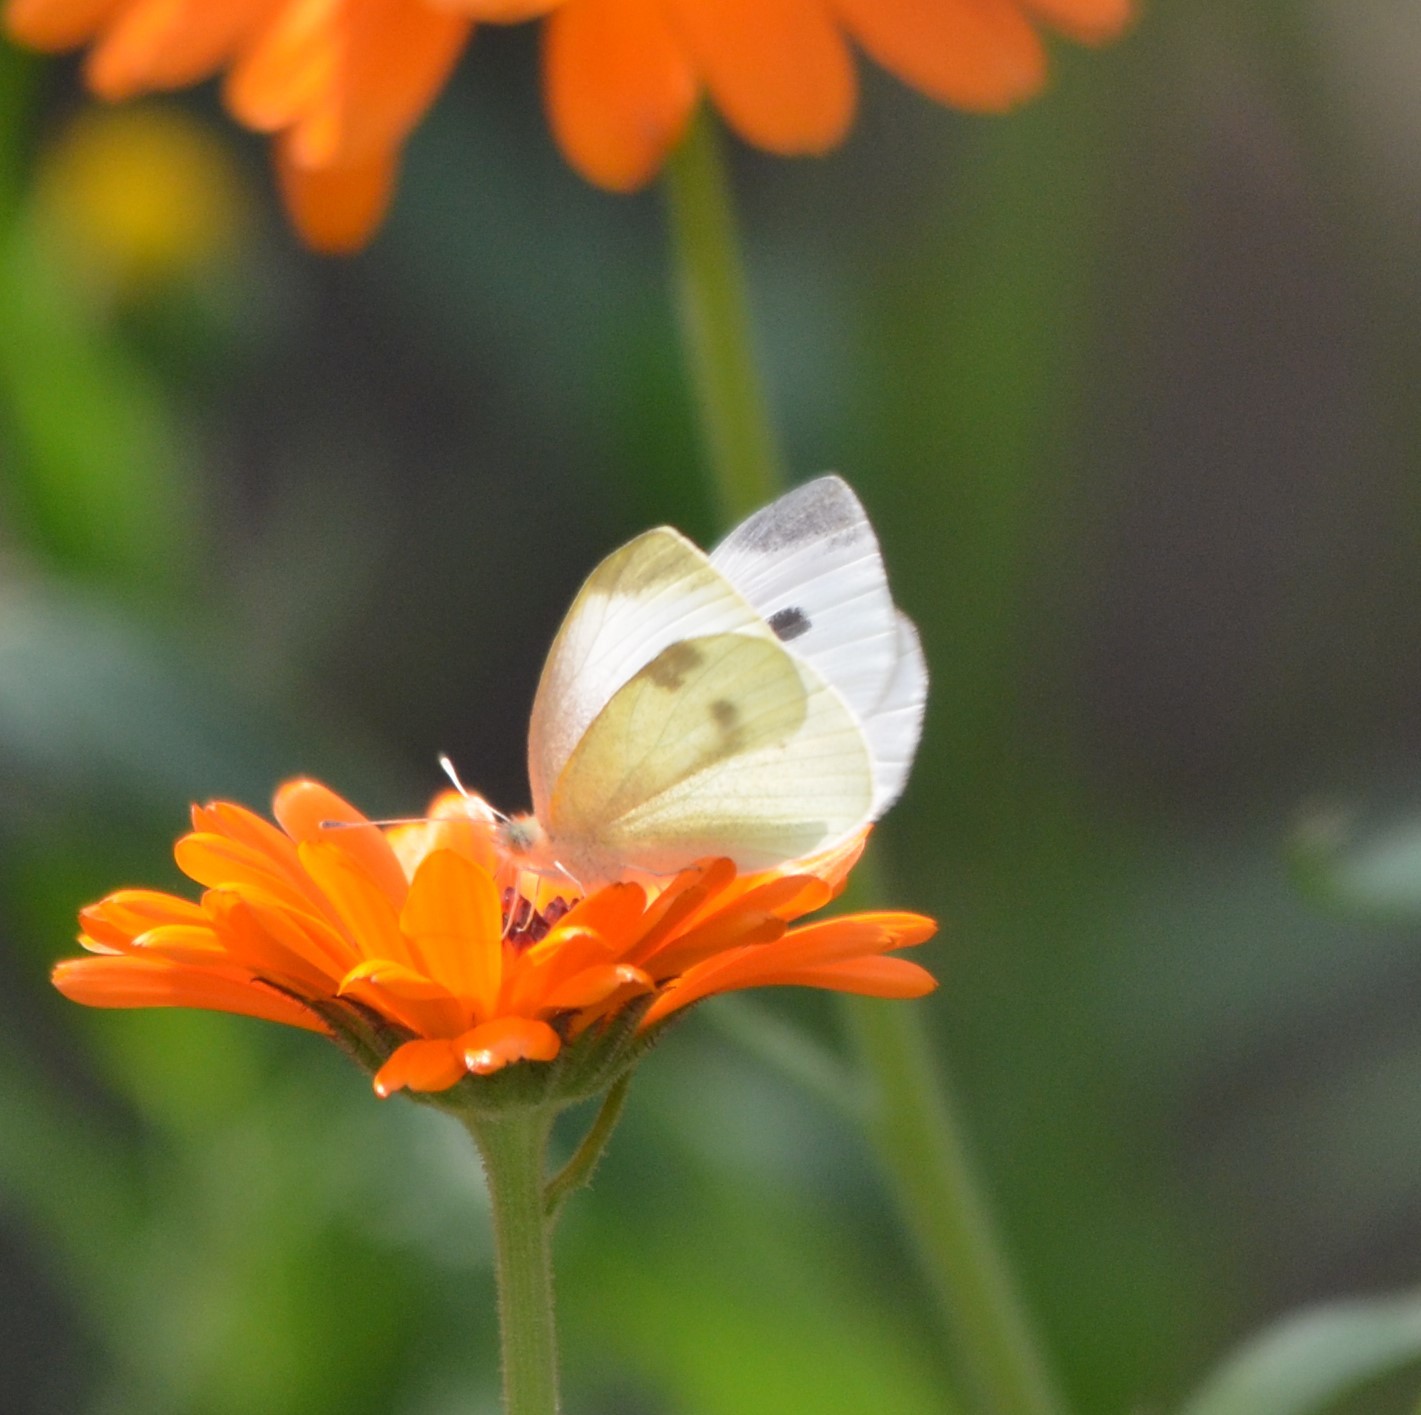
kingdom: Animalia
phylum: Arthropoda
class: Insecta
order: Lepidoptera
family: Pieridae
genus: Pieris
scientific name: Pieris rapae
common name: Small white
